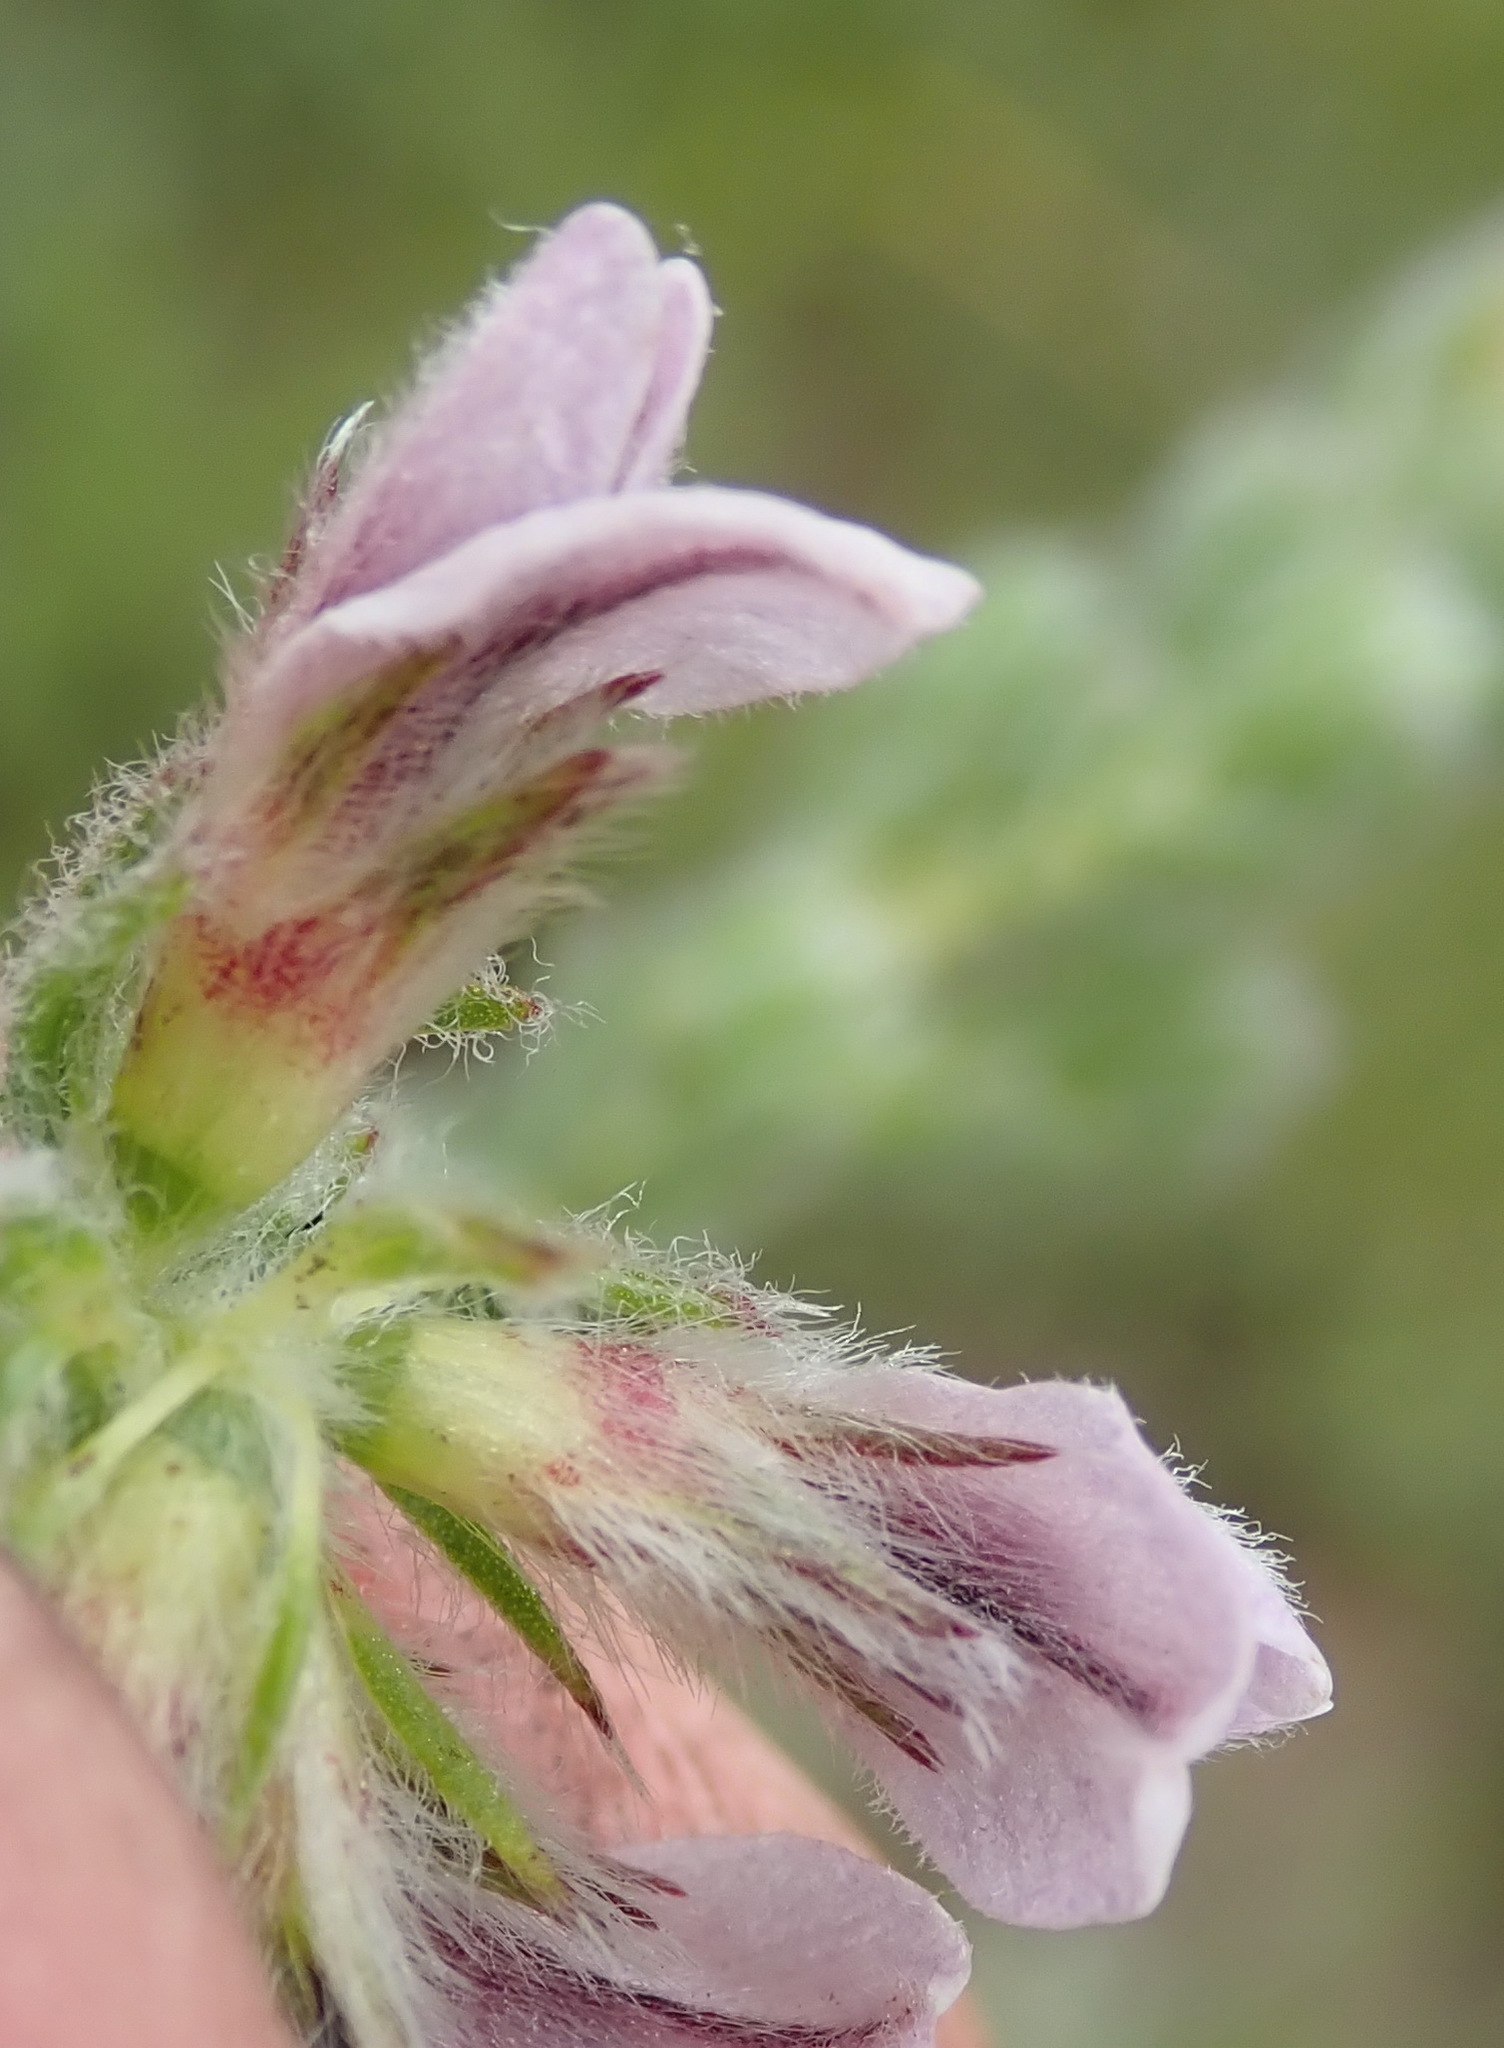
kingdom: Plantae
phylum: Tracheophyta
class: Magnoliopsida
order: Fabales
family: Fabaceae
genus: Aspalathus
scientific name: Aspalathus cerrhantha
